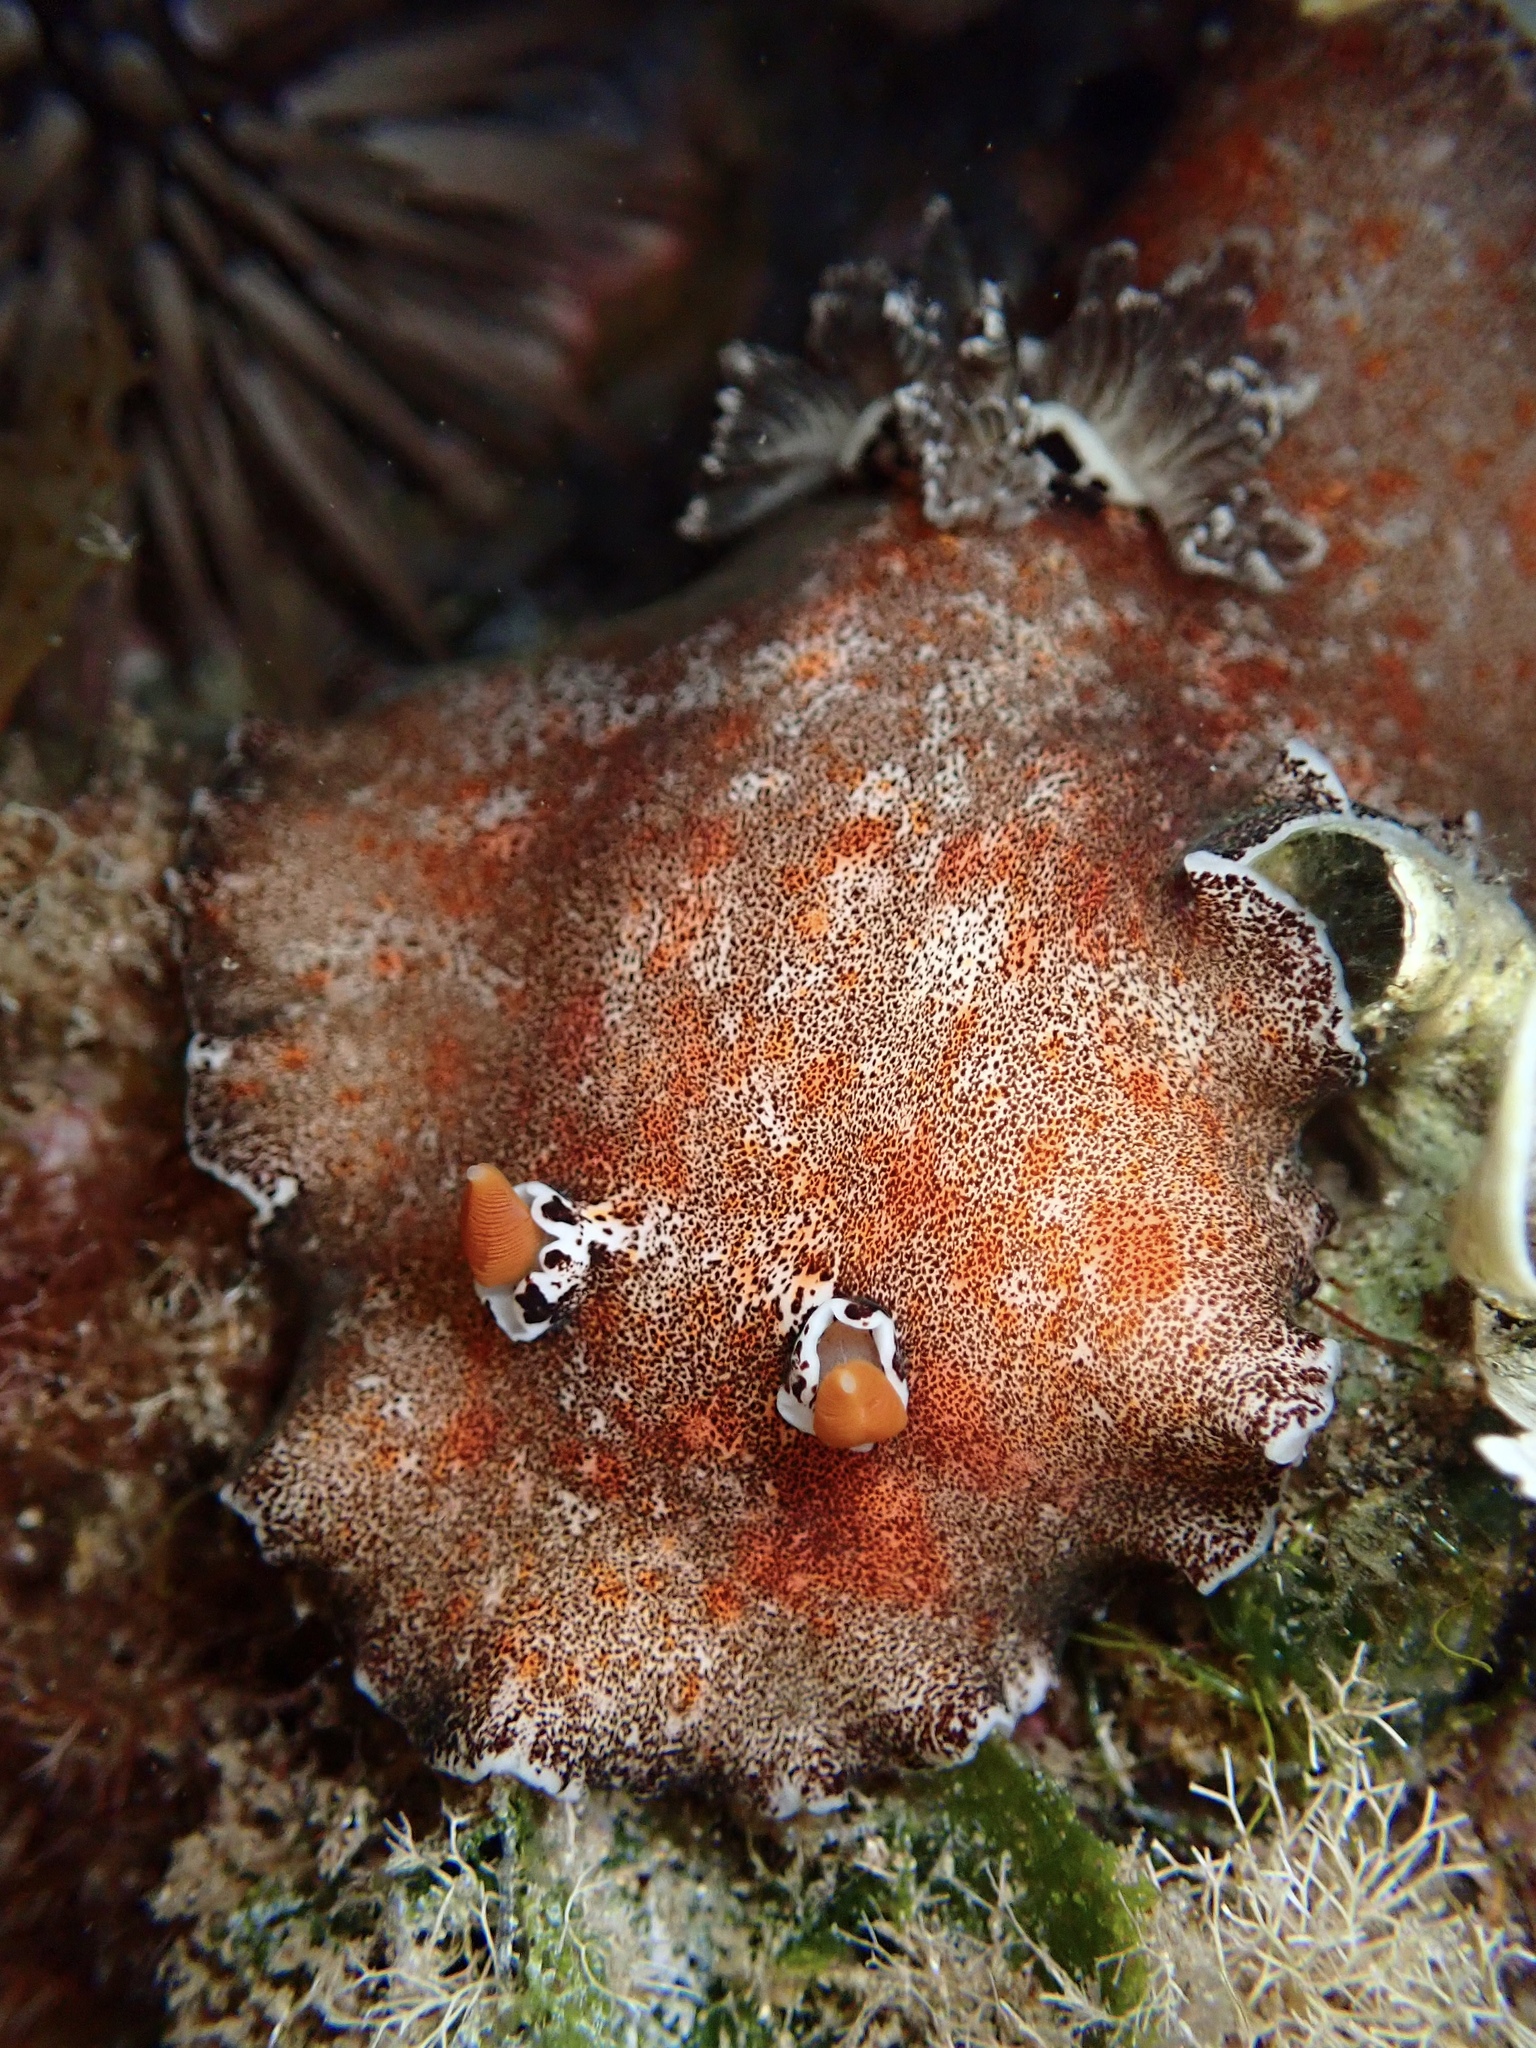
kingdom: Animalia
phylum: Mollusca
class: Gastropoda
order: Nudibranchia
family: Discodorididae
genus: Platydoris
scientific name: Platydoris formosa
